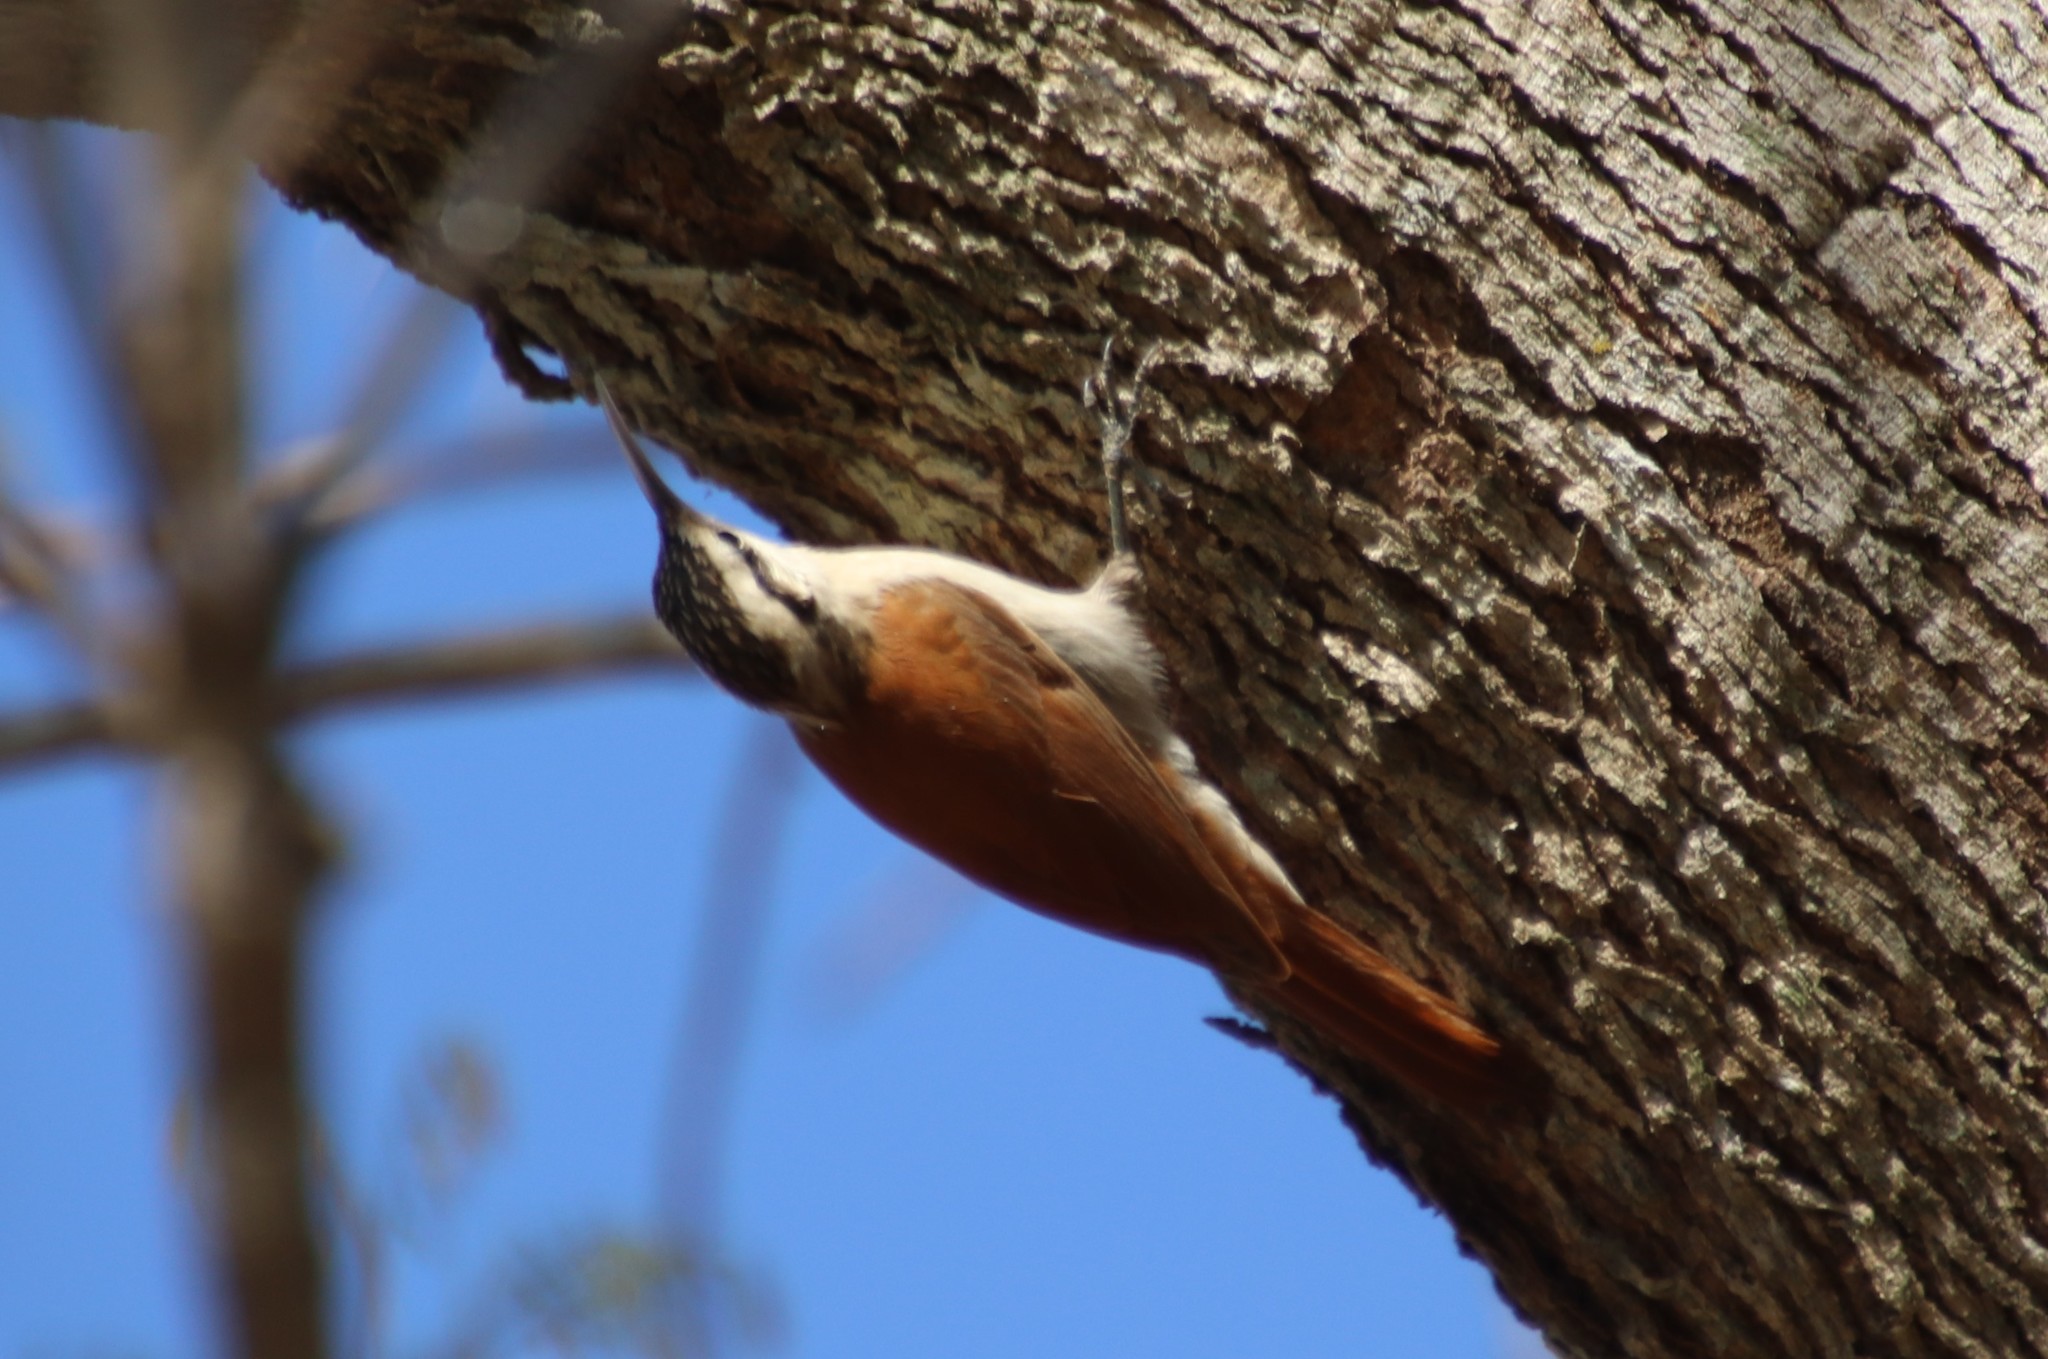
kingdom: Animalia
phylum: Chordata
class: Aves
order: Passeriformes
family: Furnariidae
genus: Lepidocolaptes
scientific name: Lepidocolaptes angustirostris
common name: Narrow-billed woodcreeper
